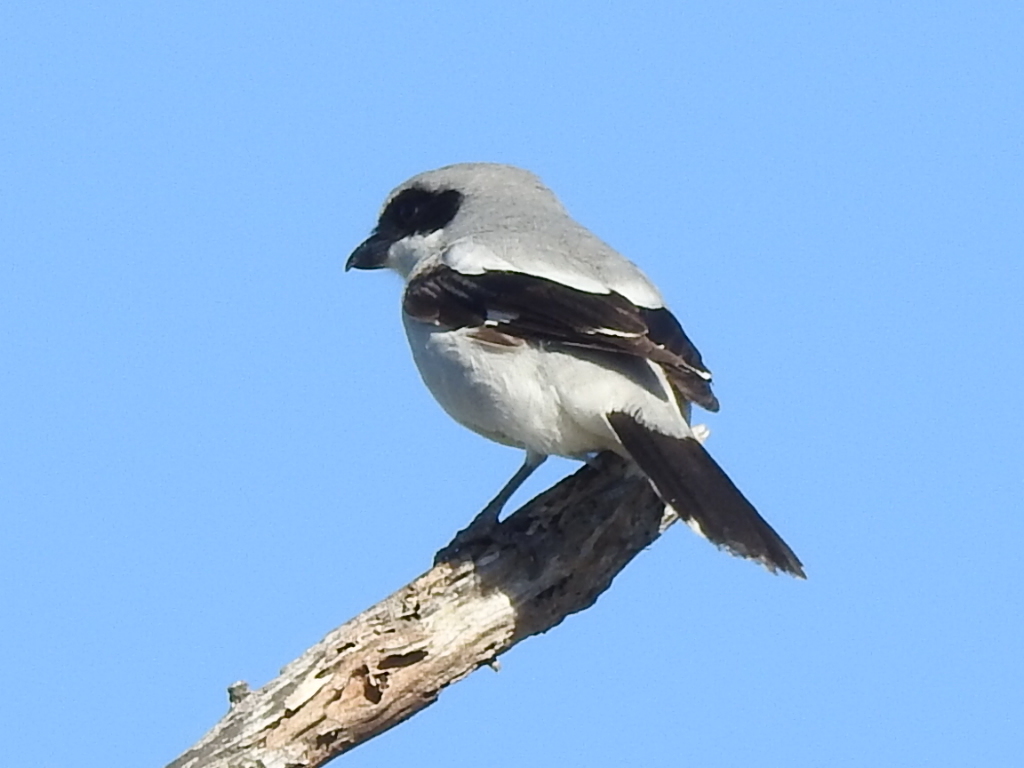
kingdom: Animalia
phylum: Chordata
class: Aves
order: Passeriformes
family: Laniidae
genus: Lanius
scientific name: Lanius ludovicianus
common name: Loggerhead shrike
